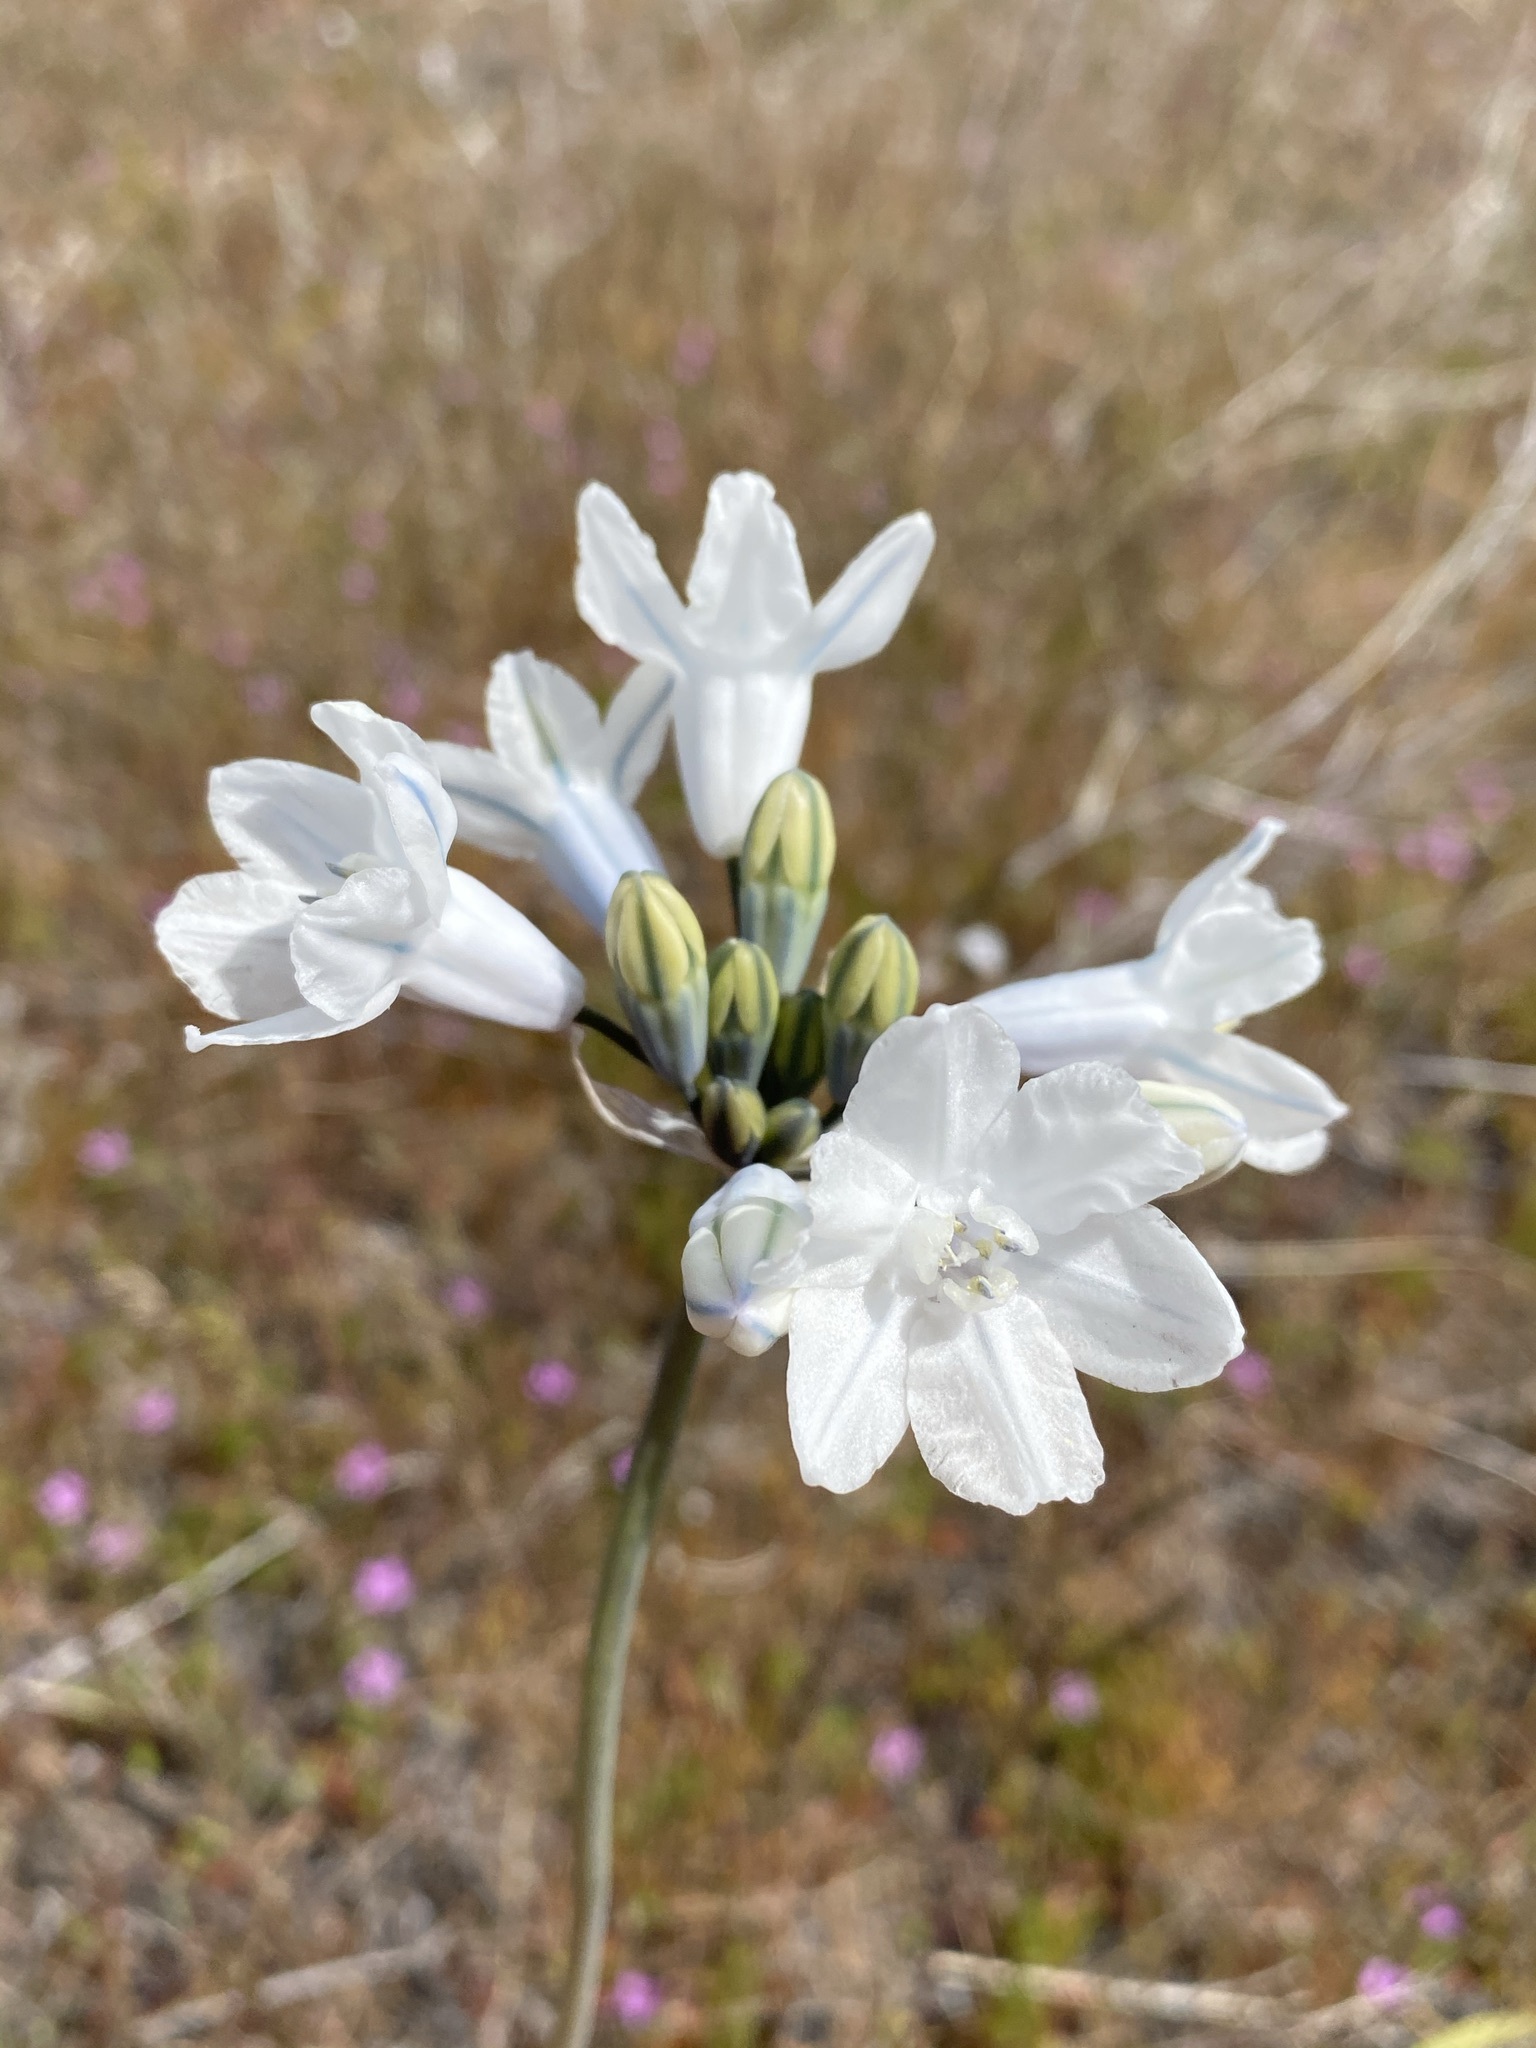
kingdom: Plantae
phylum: Tracheophyta
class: Liliopsida
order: Asparagales
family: Asparagaceae
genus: Triteleia
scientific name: Triteleia grandiflora
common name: Wild hyacinth
